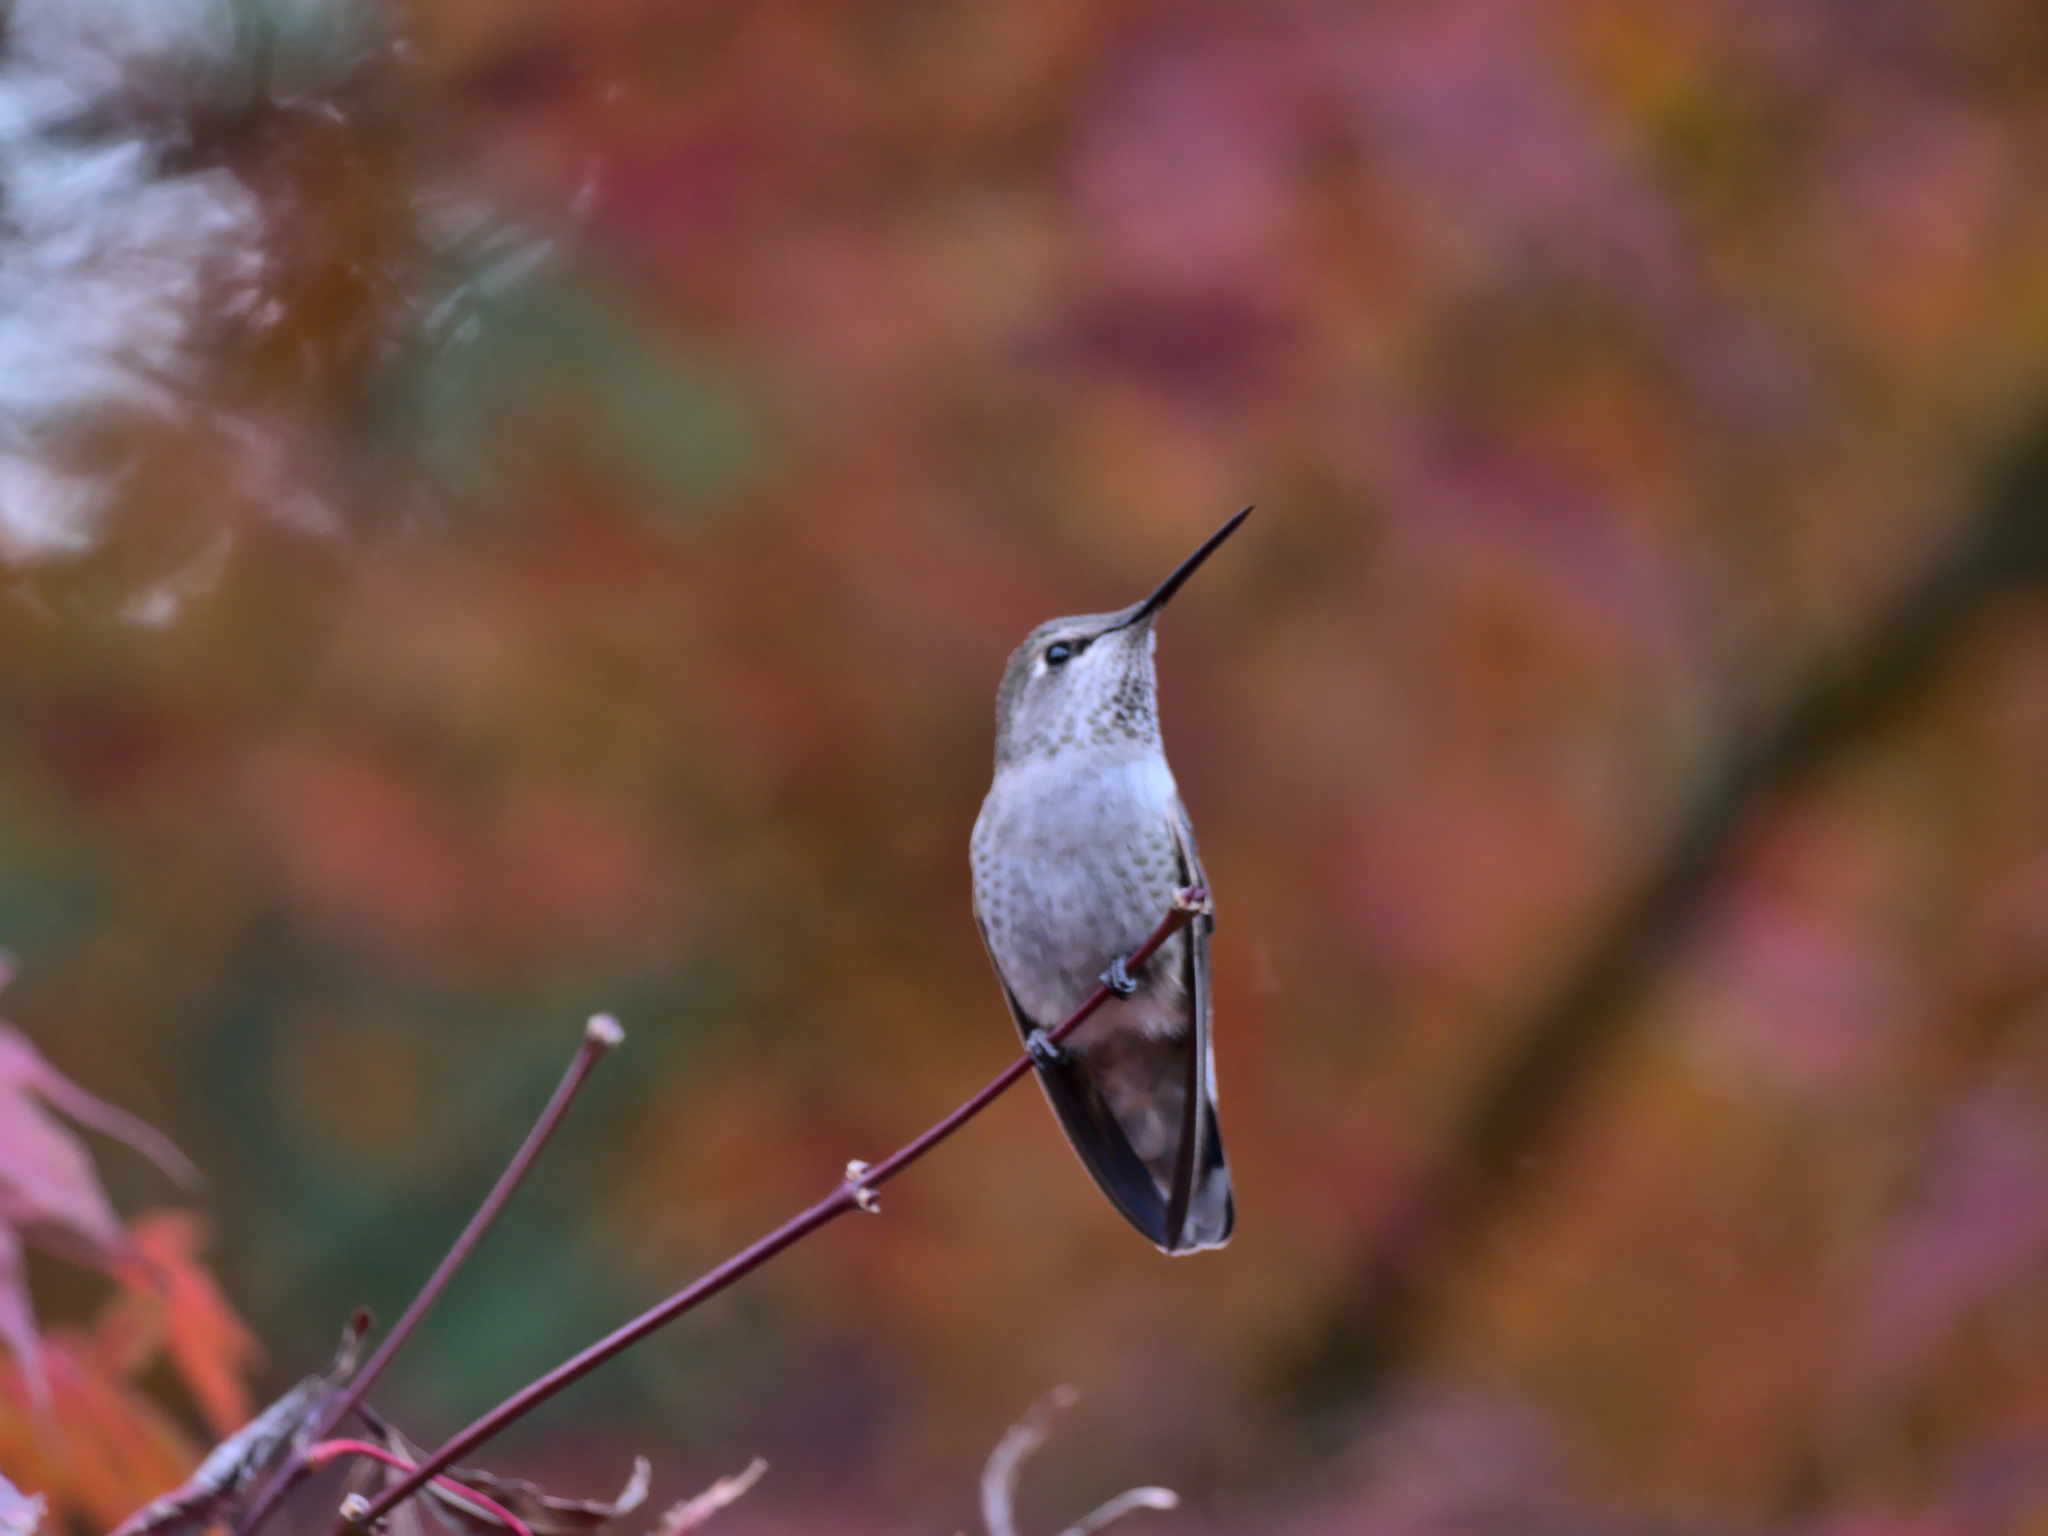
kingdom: Animalia
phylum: Chordata
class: Aves
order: Apodiformes
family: Trochilidae
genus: Calypte
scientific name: Calypte anna
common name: Anna's hummingbird
